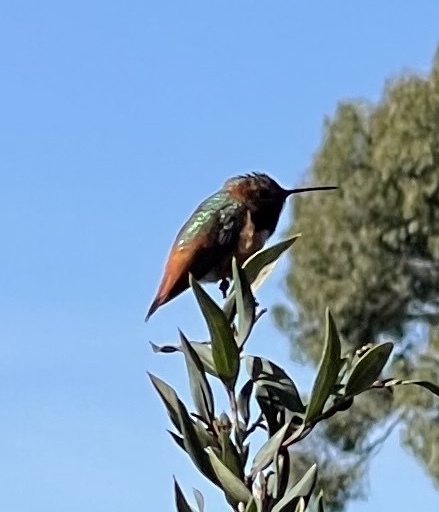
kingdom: Animalia
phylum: Chordata
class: Aves
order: Apodiformes
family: Trochilidae
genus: Selasphorus
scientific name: Selasphorus sasin
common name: Allen's hummingbird
